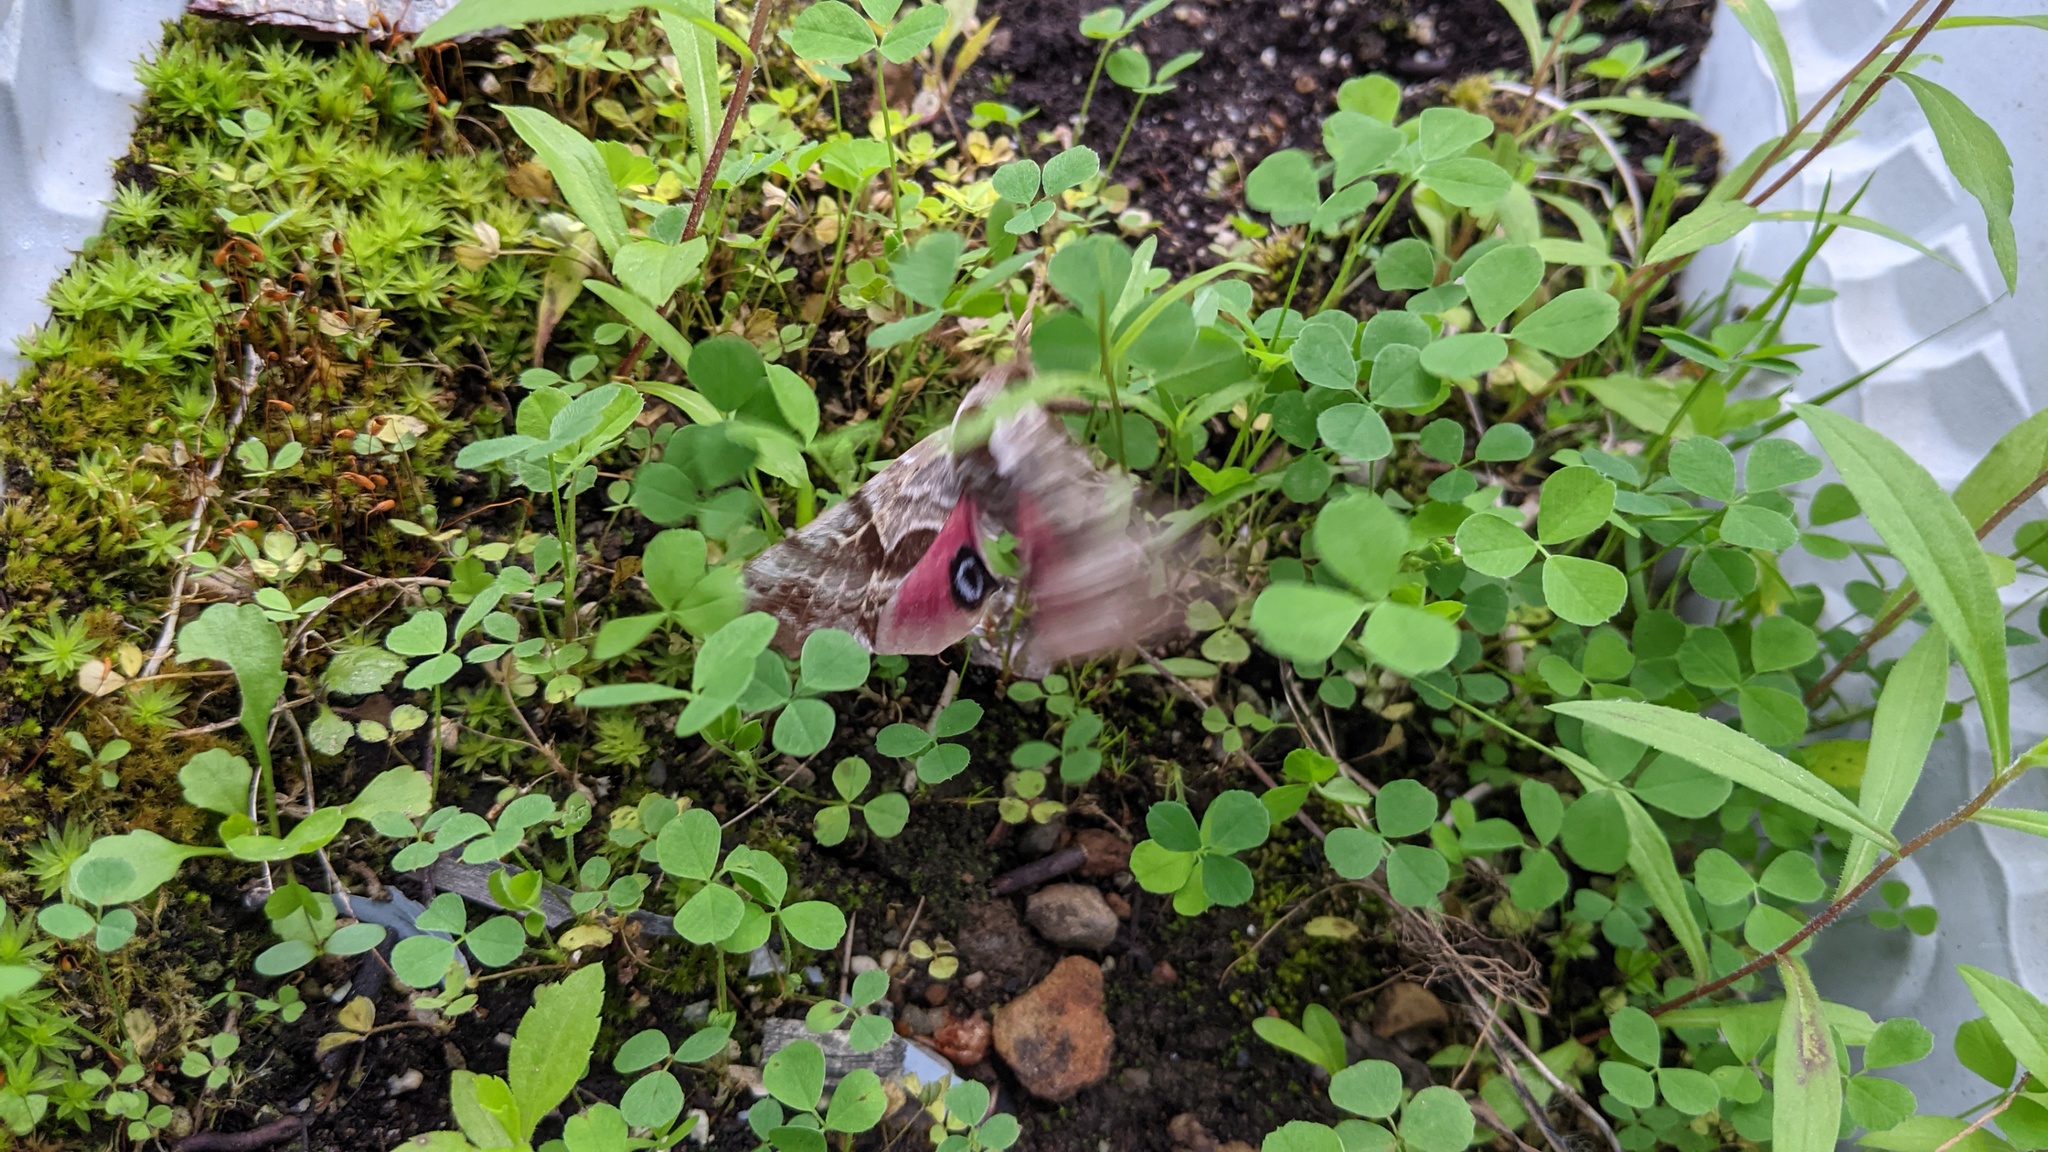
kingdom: Animalia
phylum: Arthropoda
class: Insecta
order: Lepidoptera
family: Sphingidae
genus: Smerinthus
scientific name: Smerinthus cerisyi
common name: Cerisy's sphinx moth
